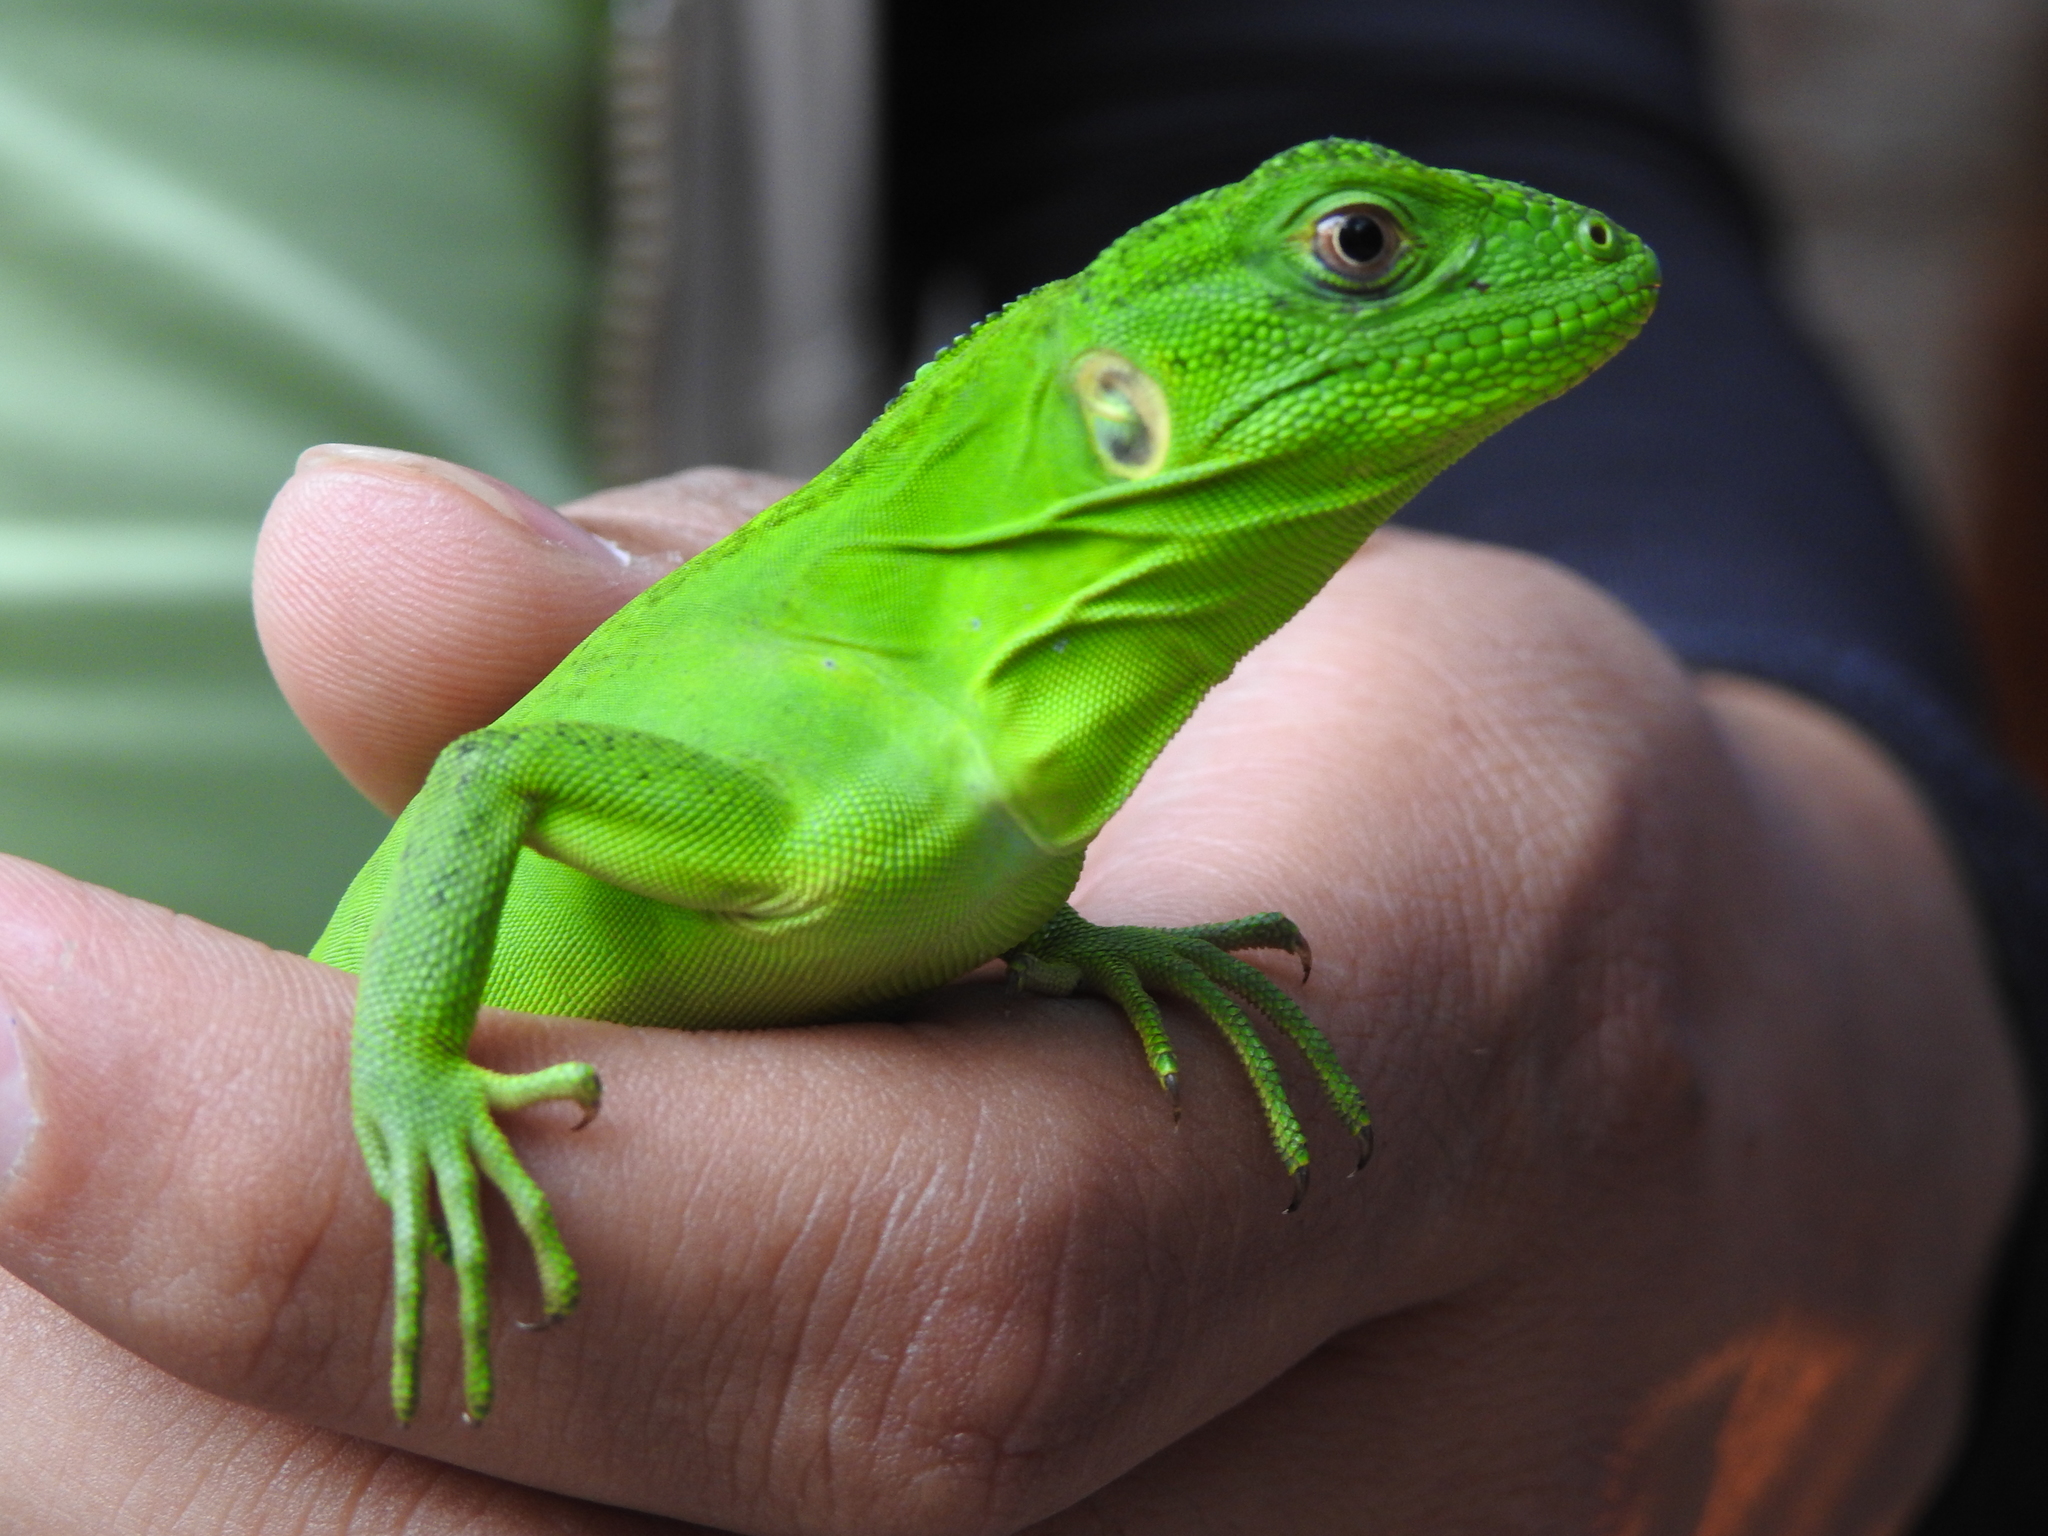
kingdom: Animalia
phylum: Chordata
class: Squamata
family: Iguanidae
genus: Ctenosaura
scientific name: Ctenosaura pectinata
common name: Guerreran spiny-tailed iguana
